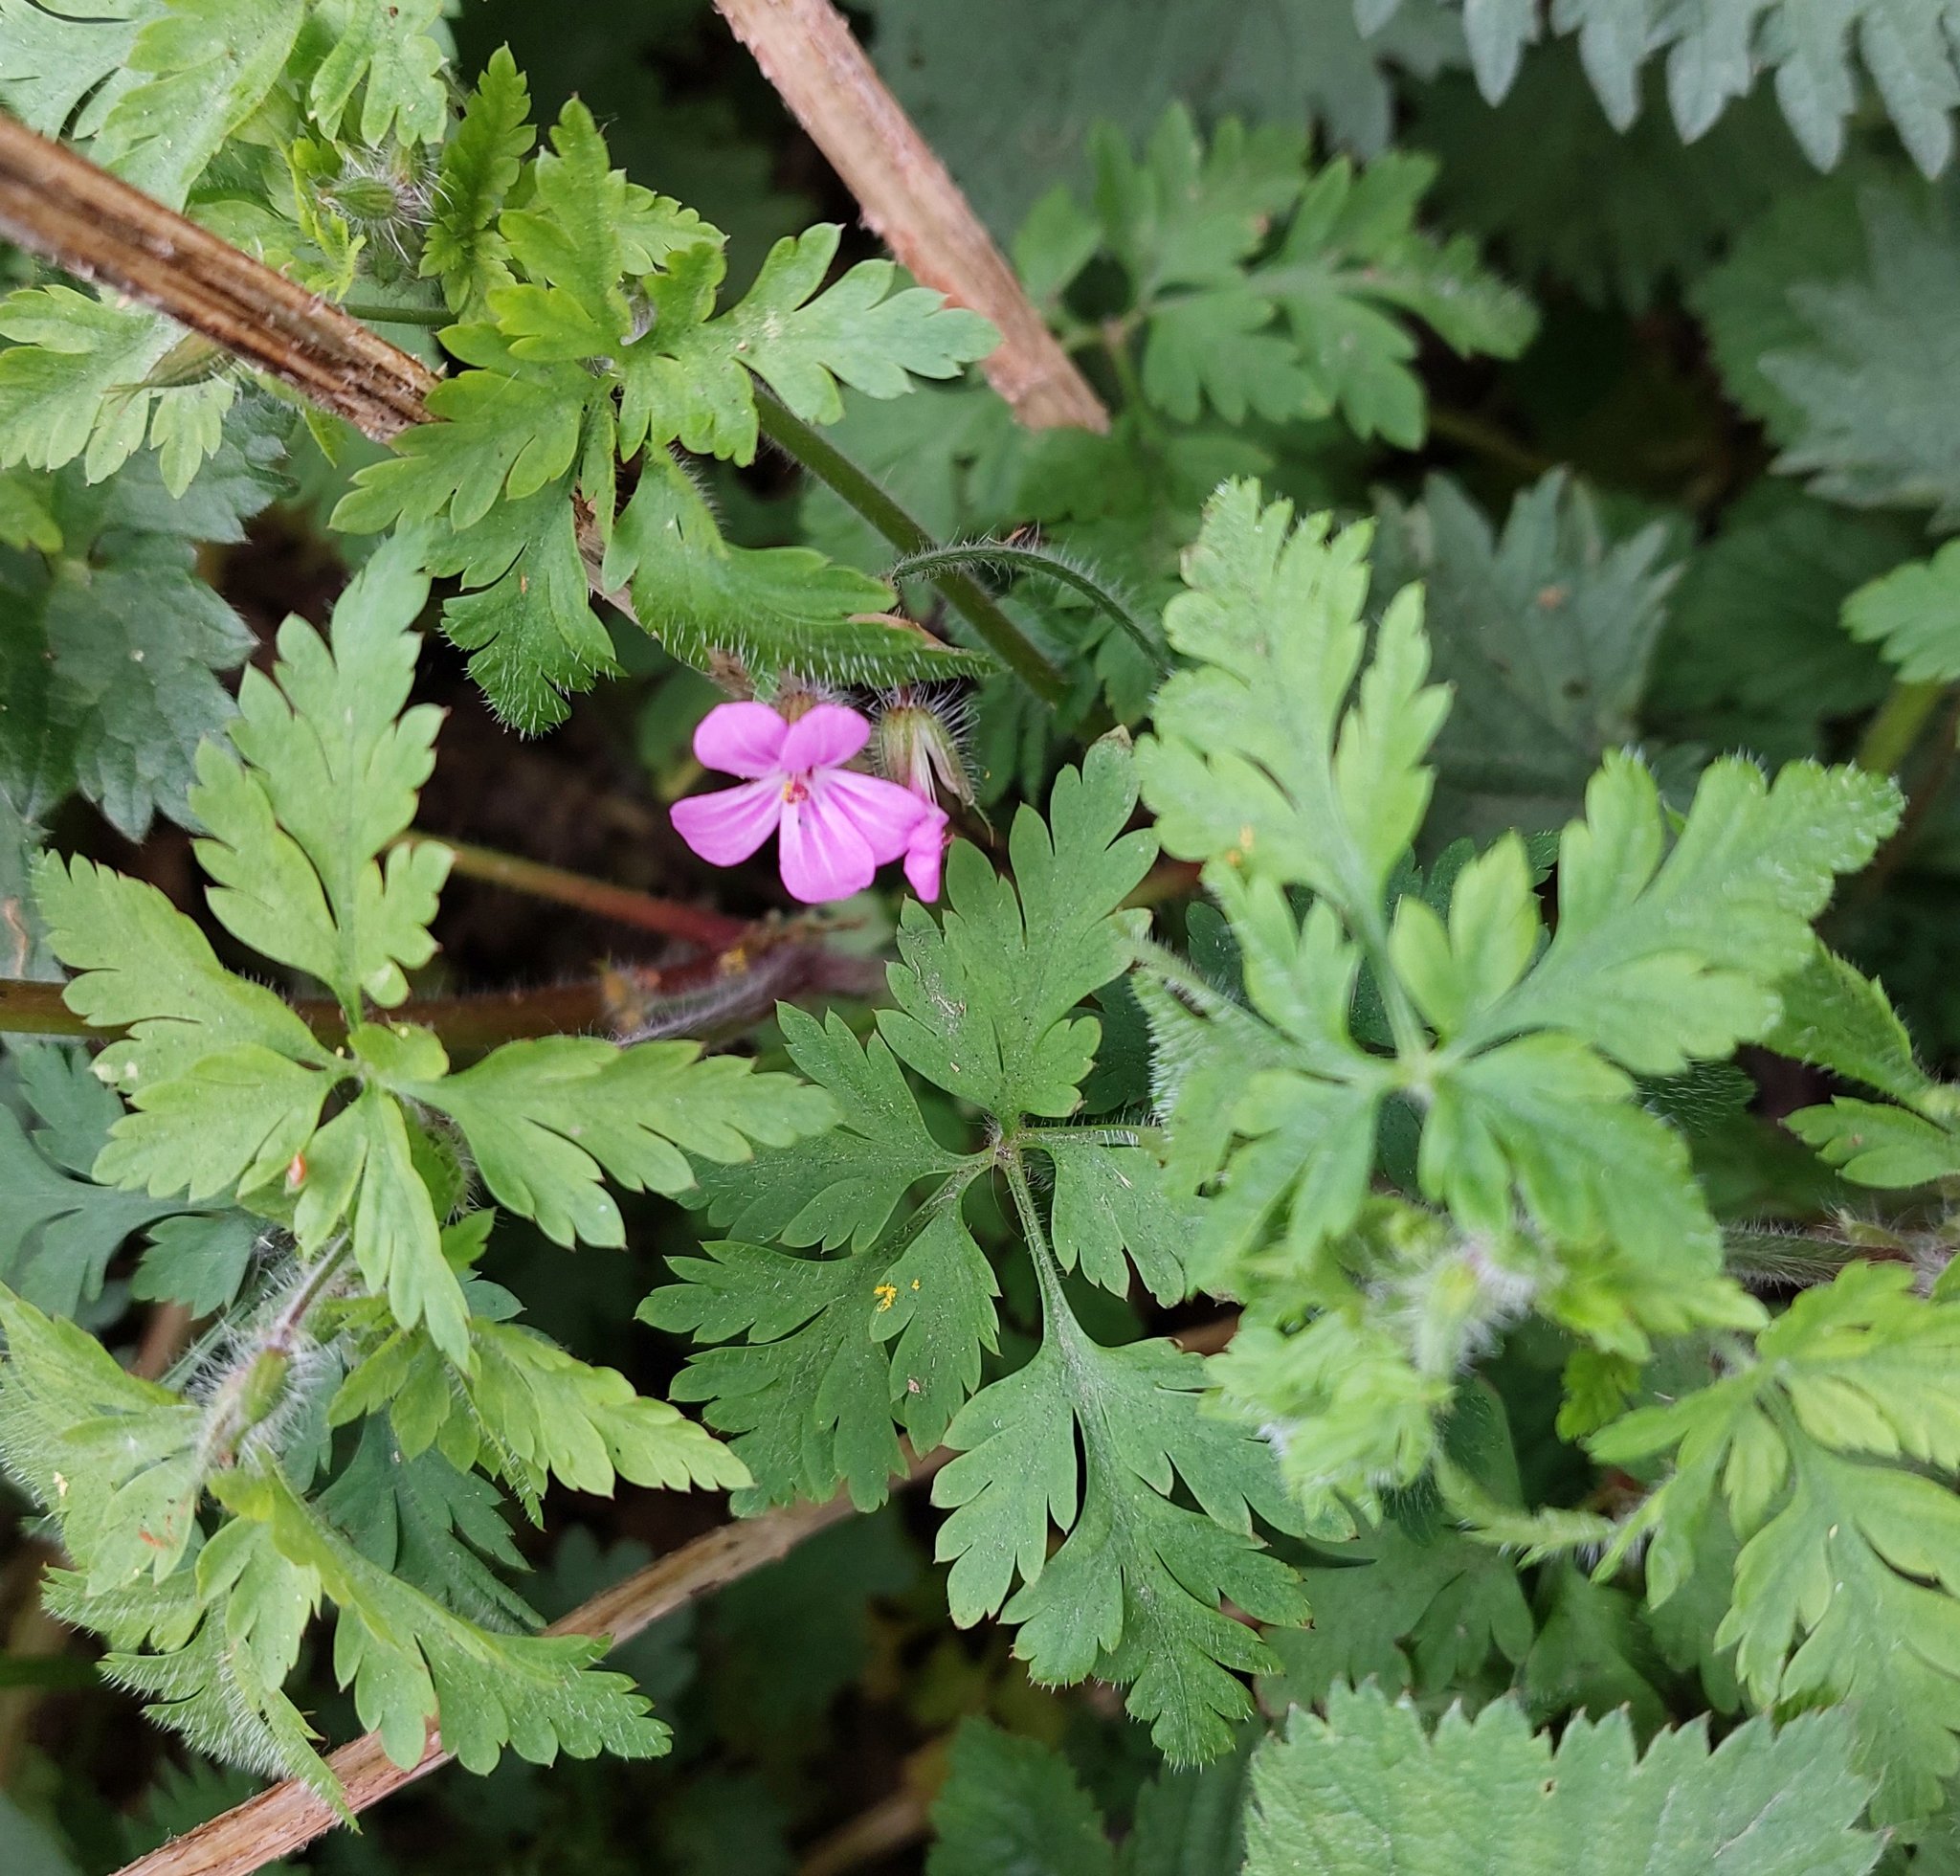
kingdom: Plantae
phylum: Tracheophyta
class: Magnoliopsida
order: Geraniales
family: Geraniaceae
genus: Geranium
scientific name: Geranium robertianum
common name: Herb-robert
